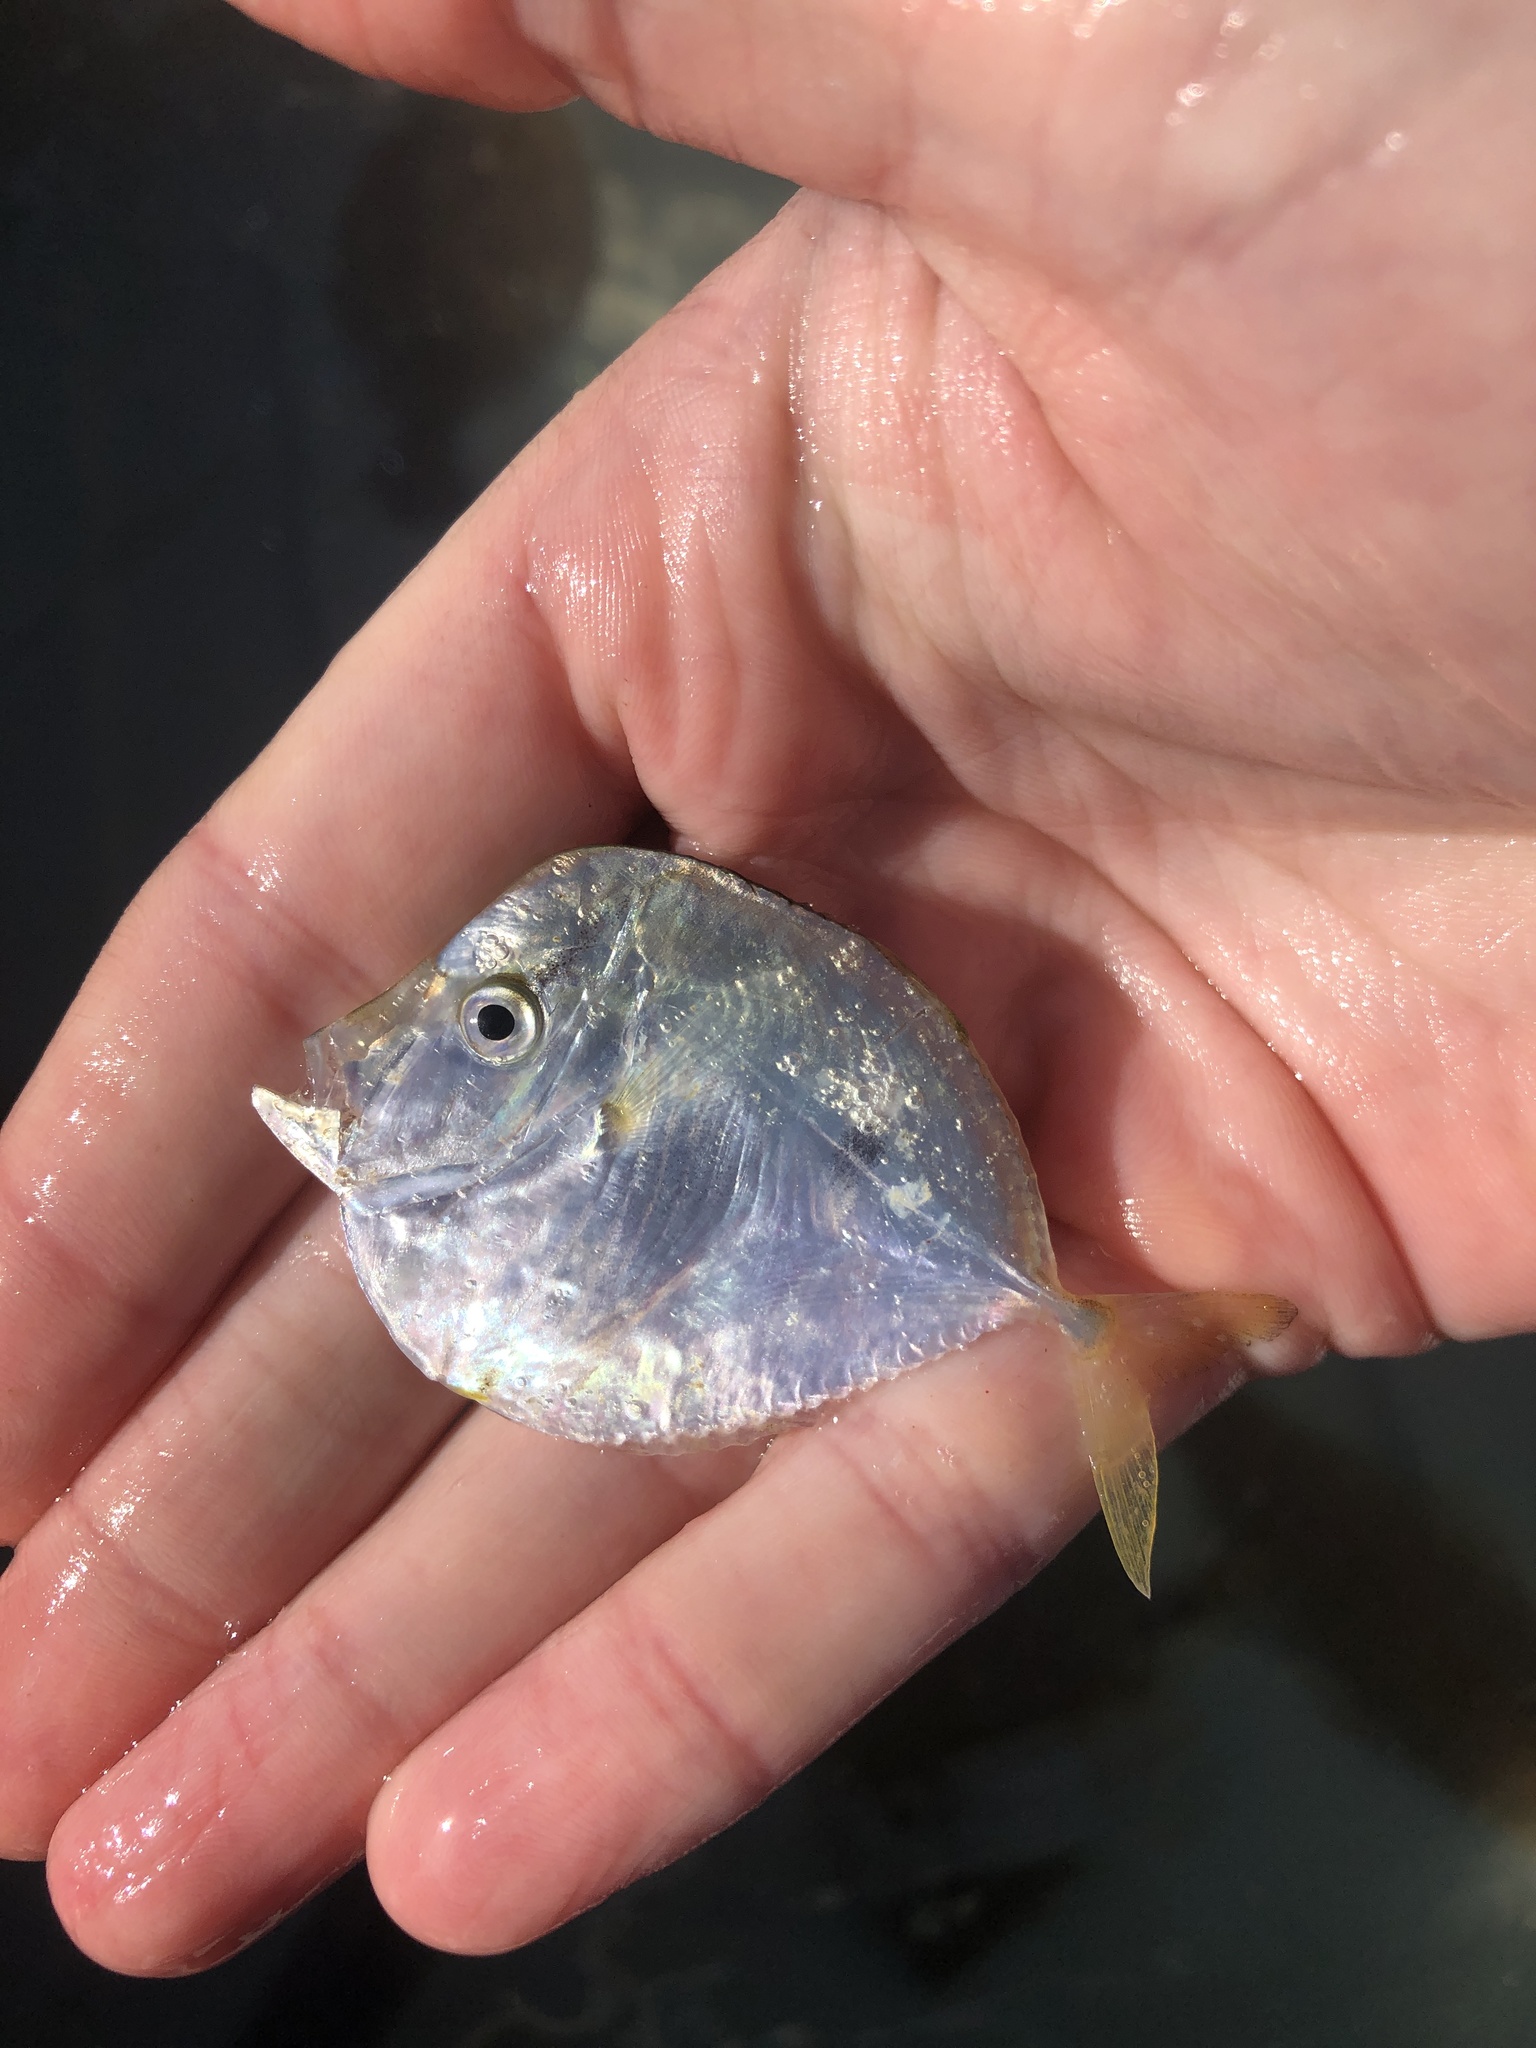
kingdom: Animalia
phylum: Chordata
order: Perciformes
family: Carangidae
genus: Selene
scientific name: Selene setapinnis
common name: Moonfish
